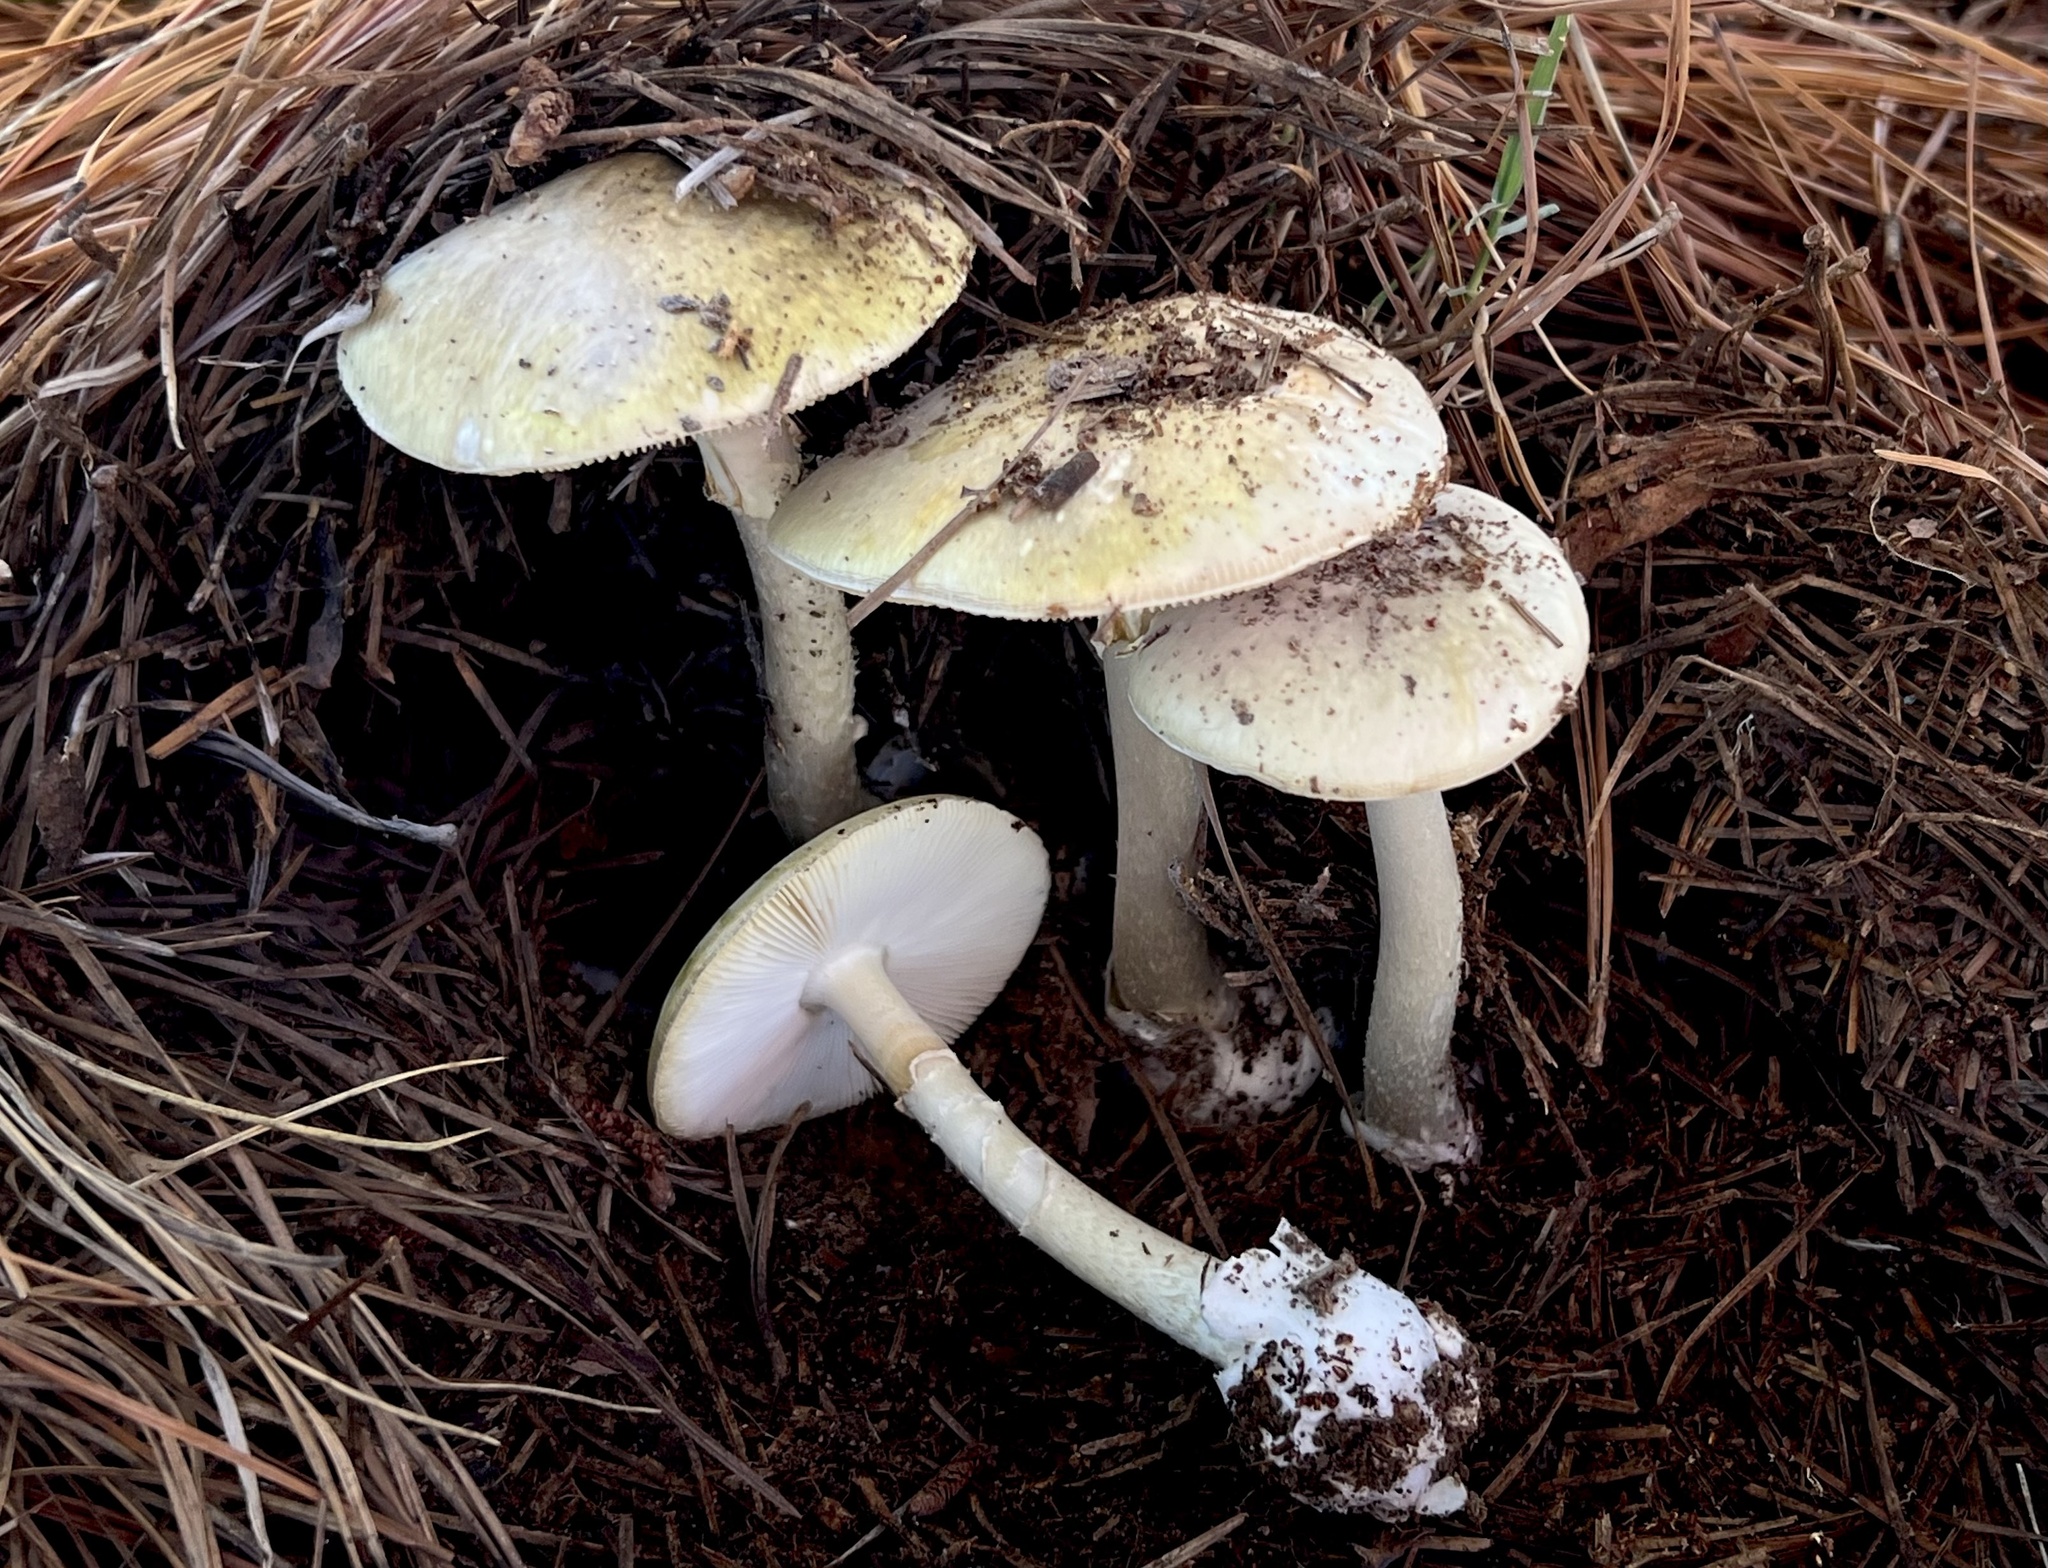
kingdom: Fungi
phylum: Basidiomycota
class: Agaricomycetes
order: Agaricales
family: Amanitaceae
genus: Amanita
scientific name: Amanita phalloides
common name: Death cap
